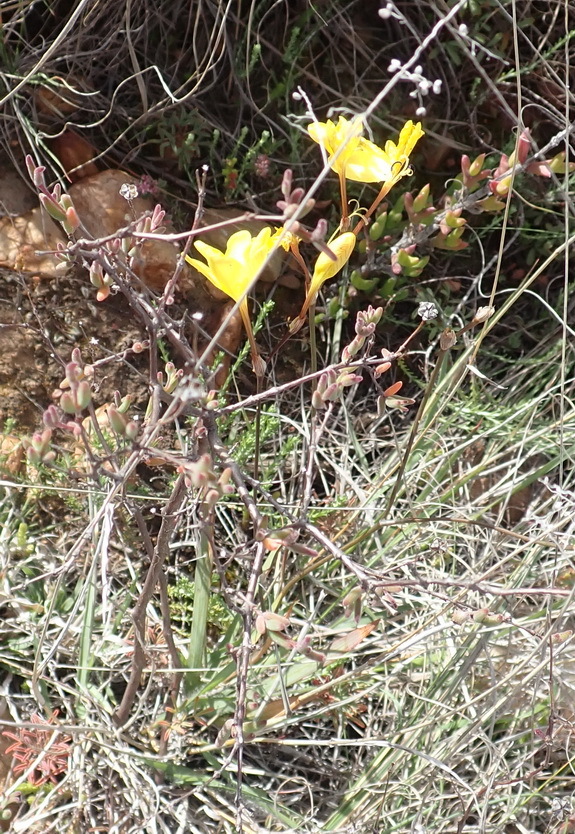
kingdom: Plantae
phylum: Tracheophyta
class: Liliopsida
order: Asparagales
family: Iridaceae
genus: Tritonia
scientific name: Tritonia chrysantha
